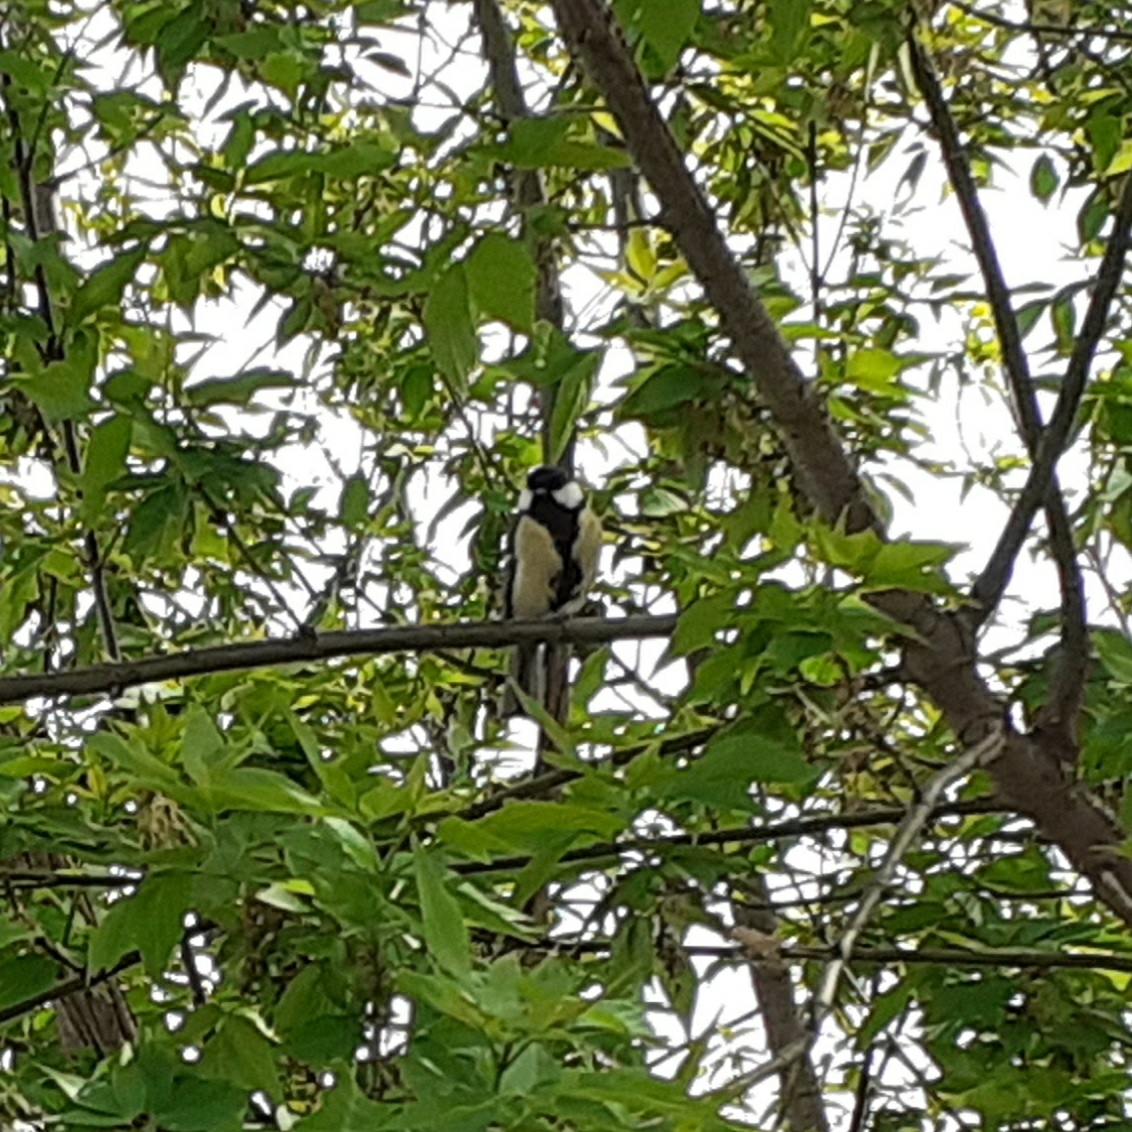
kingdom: Animalia
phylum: Chordata
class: Aves
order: Passeriformes
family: Paridae
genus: Parus
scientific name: Parus major
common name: Great tit
